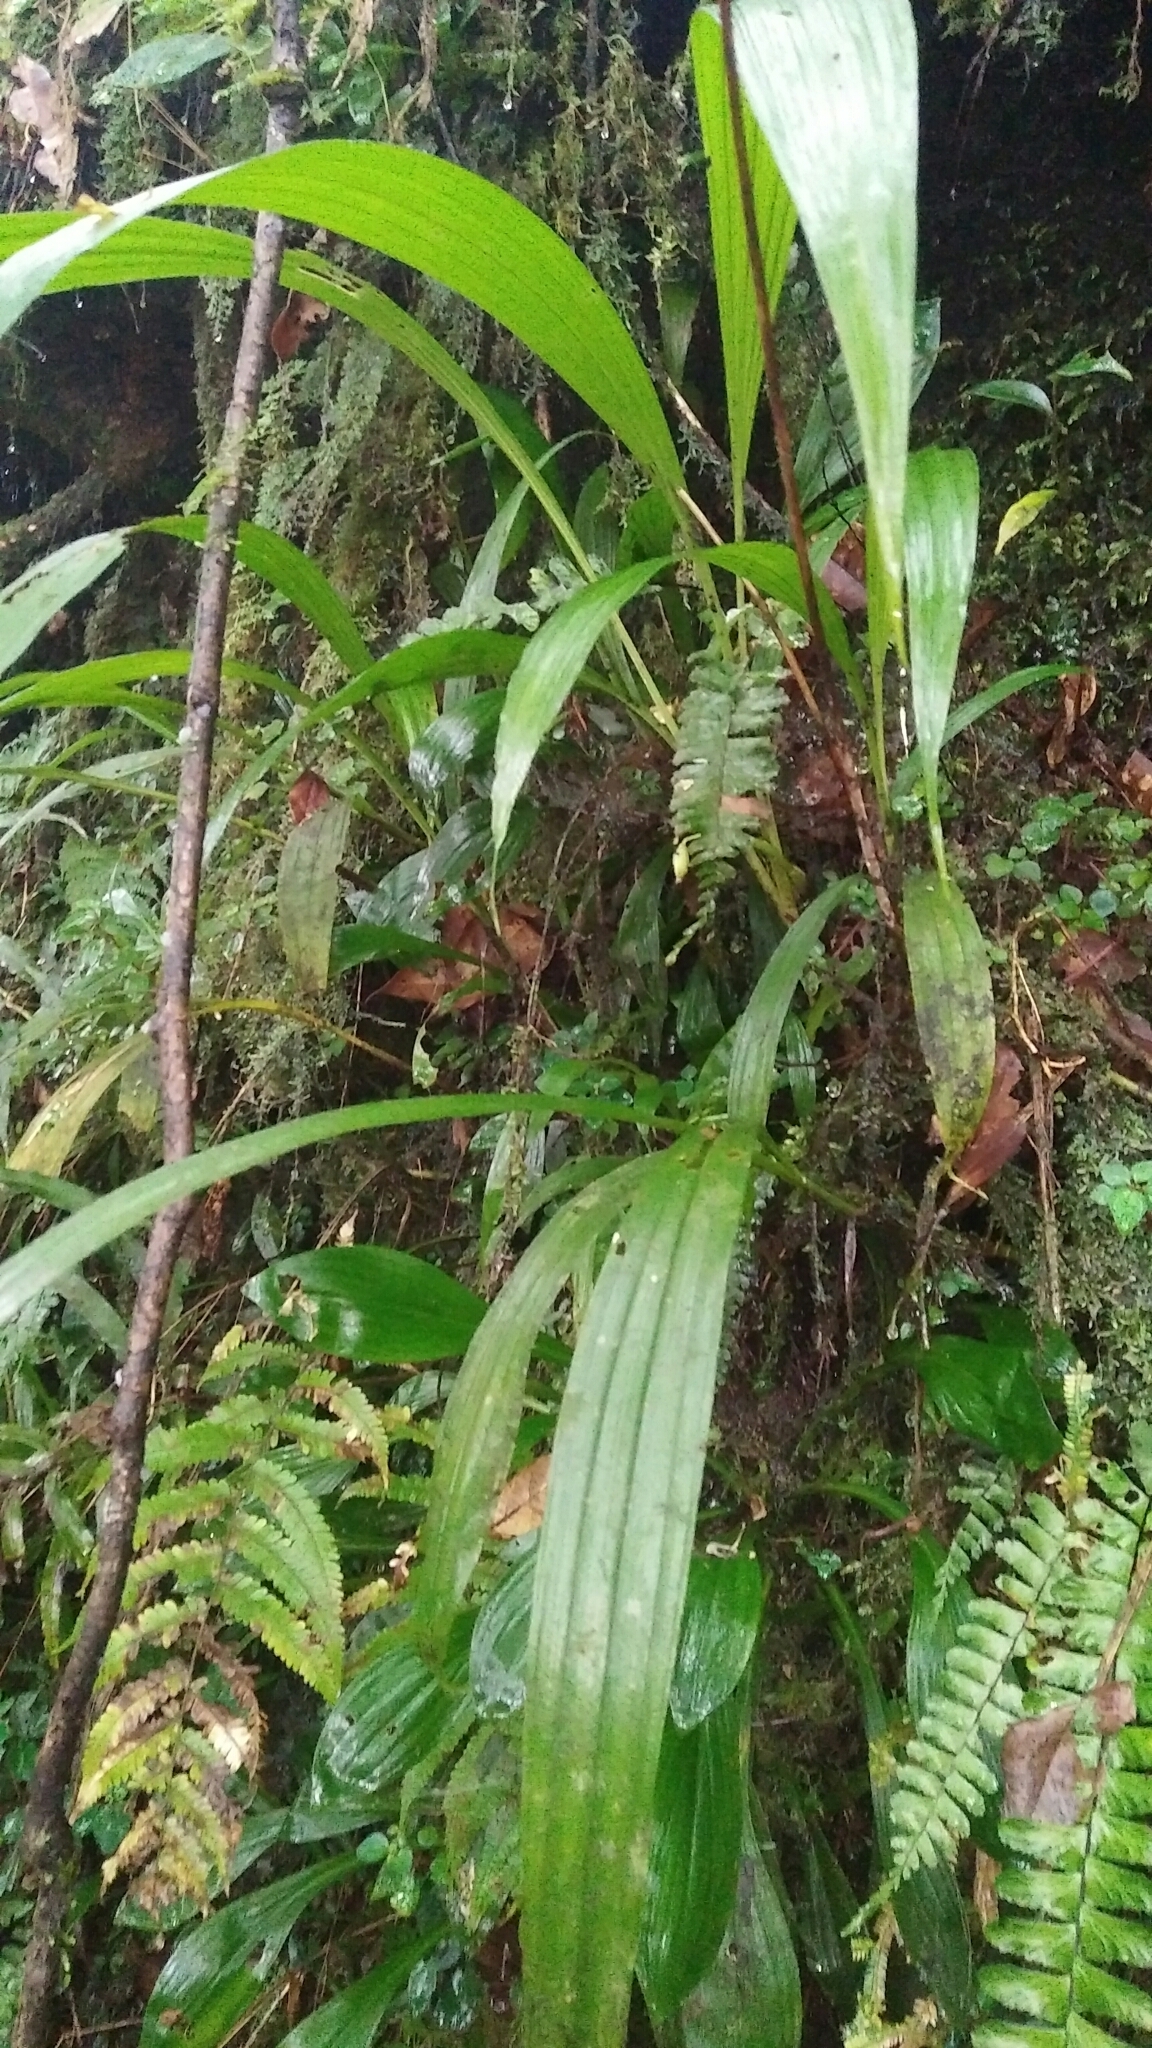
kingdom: Plantae
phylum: Tracheophyta
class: Liliopsida
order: Asparagales
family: Orchidaceae
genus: Calanthe
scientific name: Calanthe densiflora
